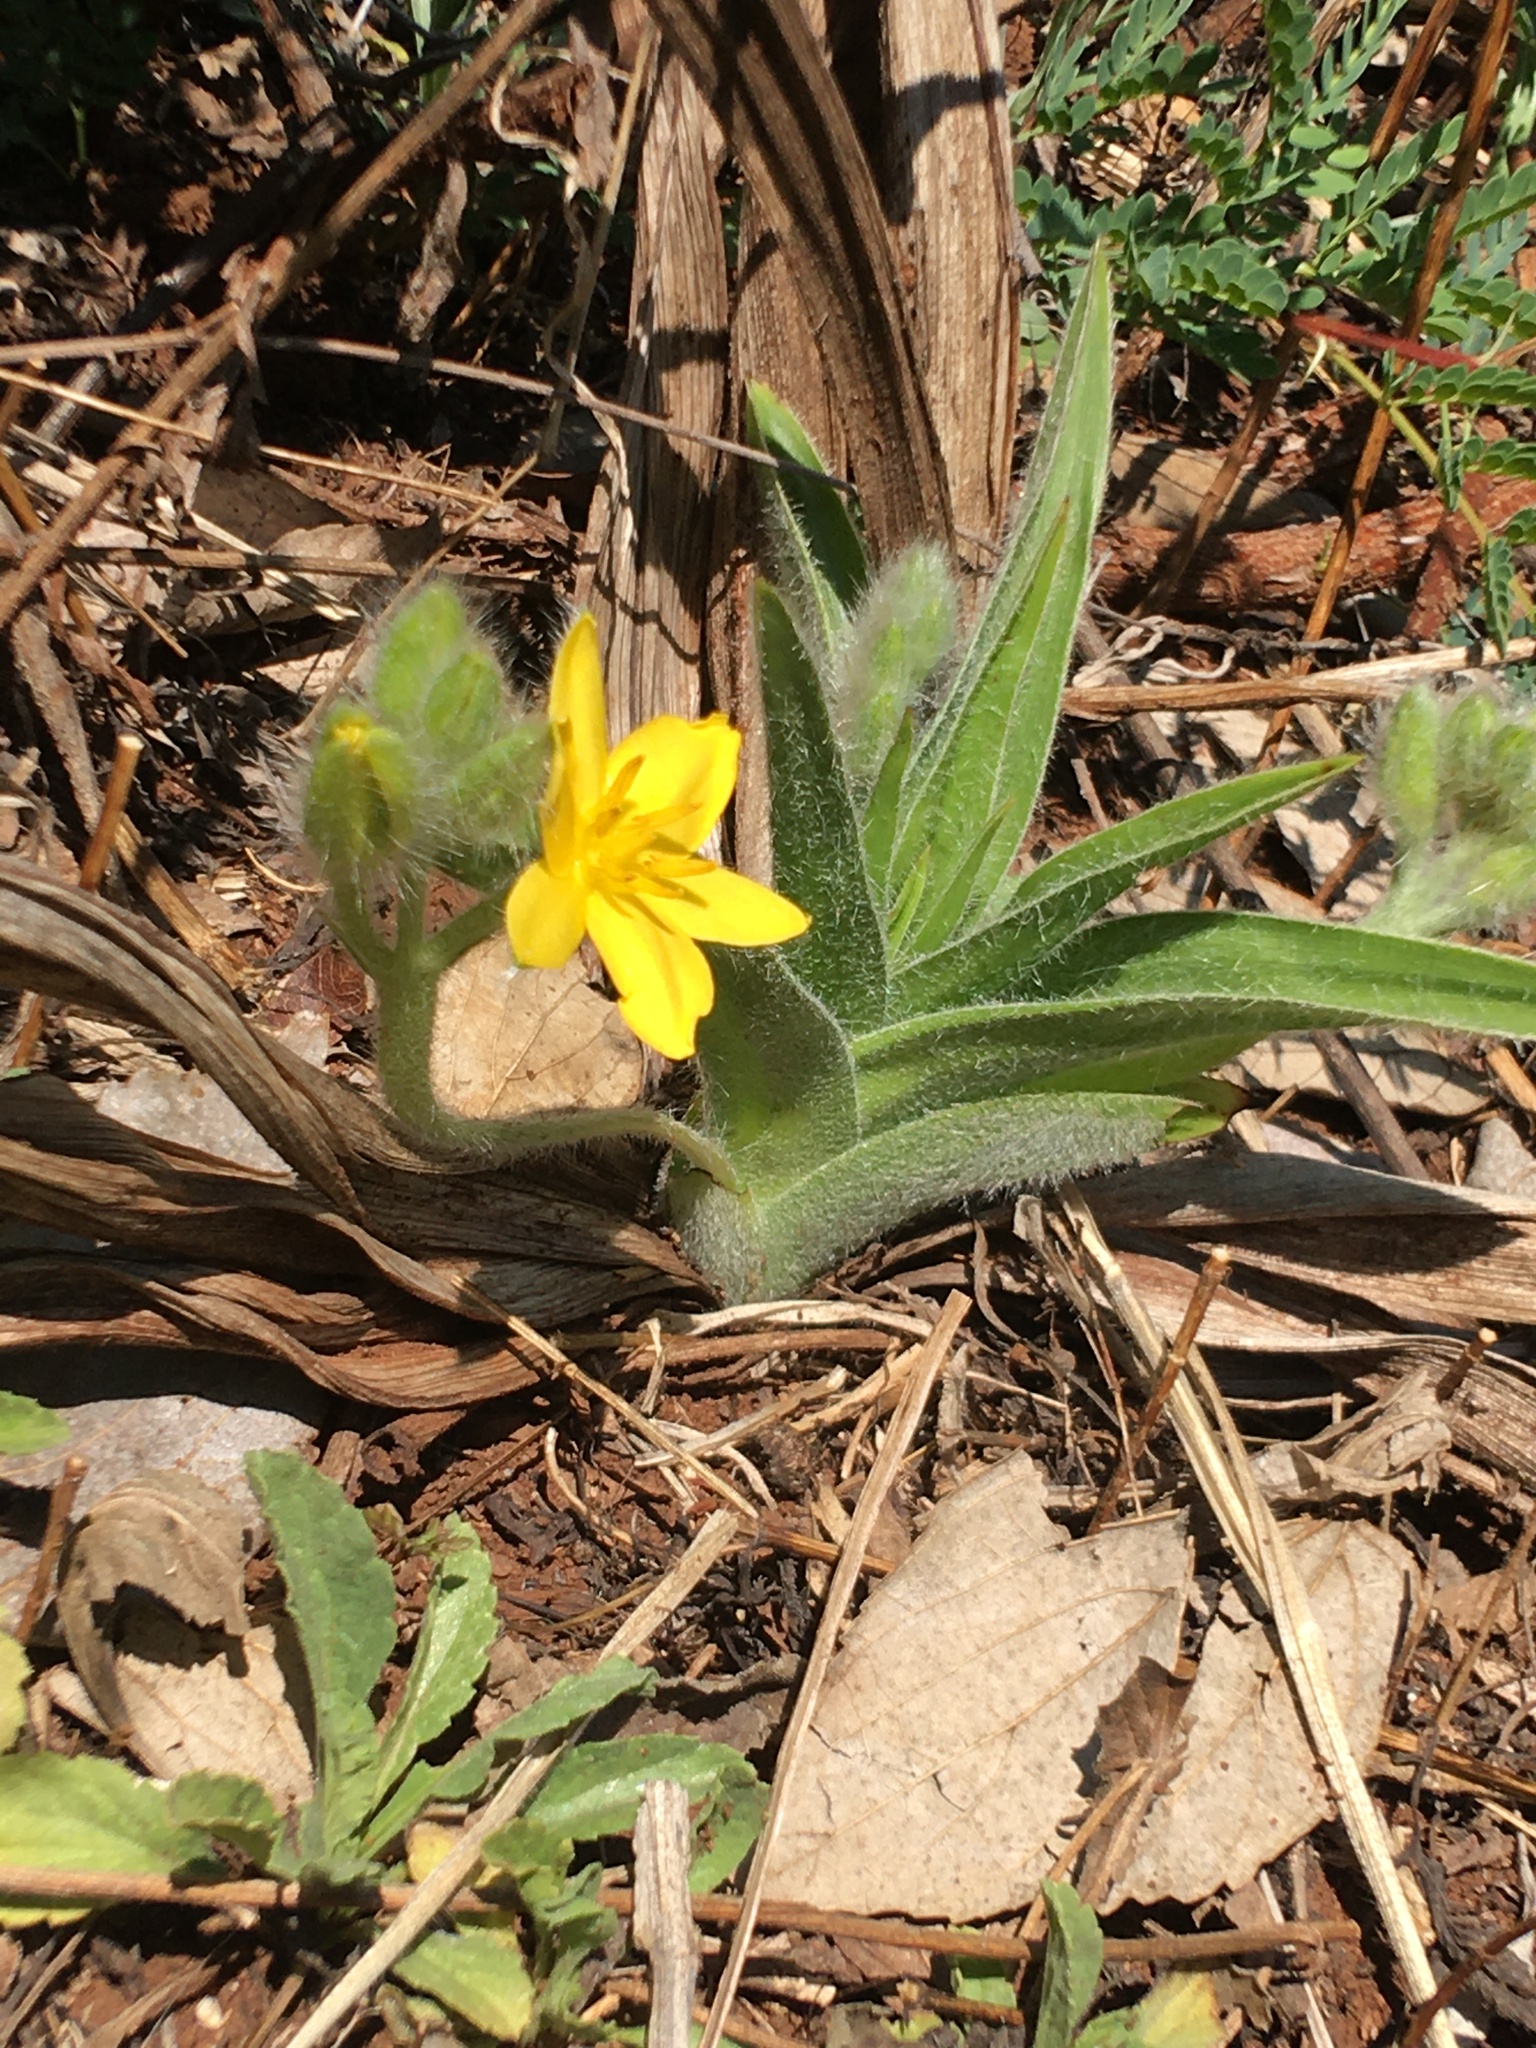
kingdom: Plantae
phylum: Tracheophyta
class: Liliopsida
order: Asparagales
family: Hypoxidaceae
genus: Hypoxis
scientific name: Hypoxis hemerocallidea
